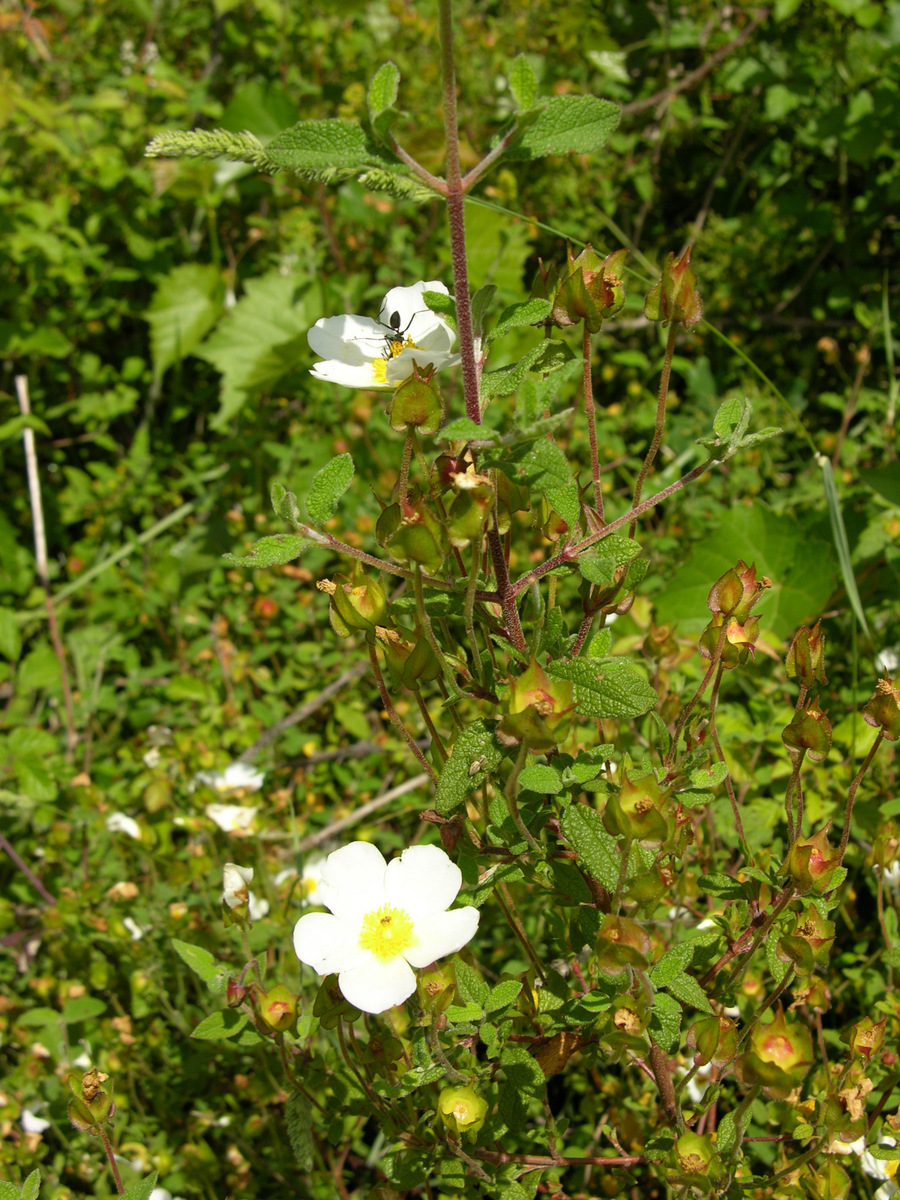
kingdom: Plantae
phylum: Tracheophyta
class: Magnoliopsida
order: Malvales
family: Cistaceae
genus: Cistus
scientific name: Cistus salviifolius
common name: Salvia cistus
